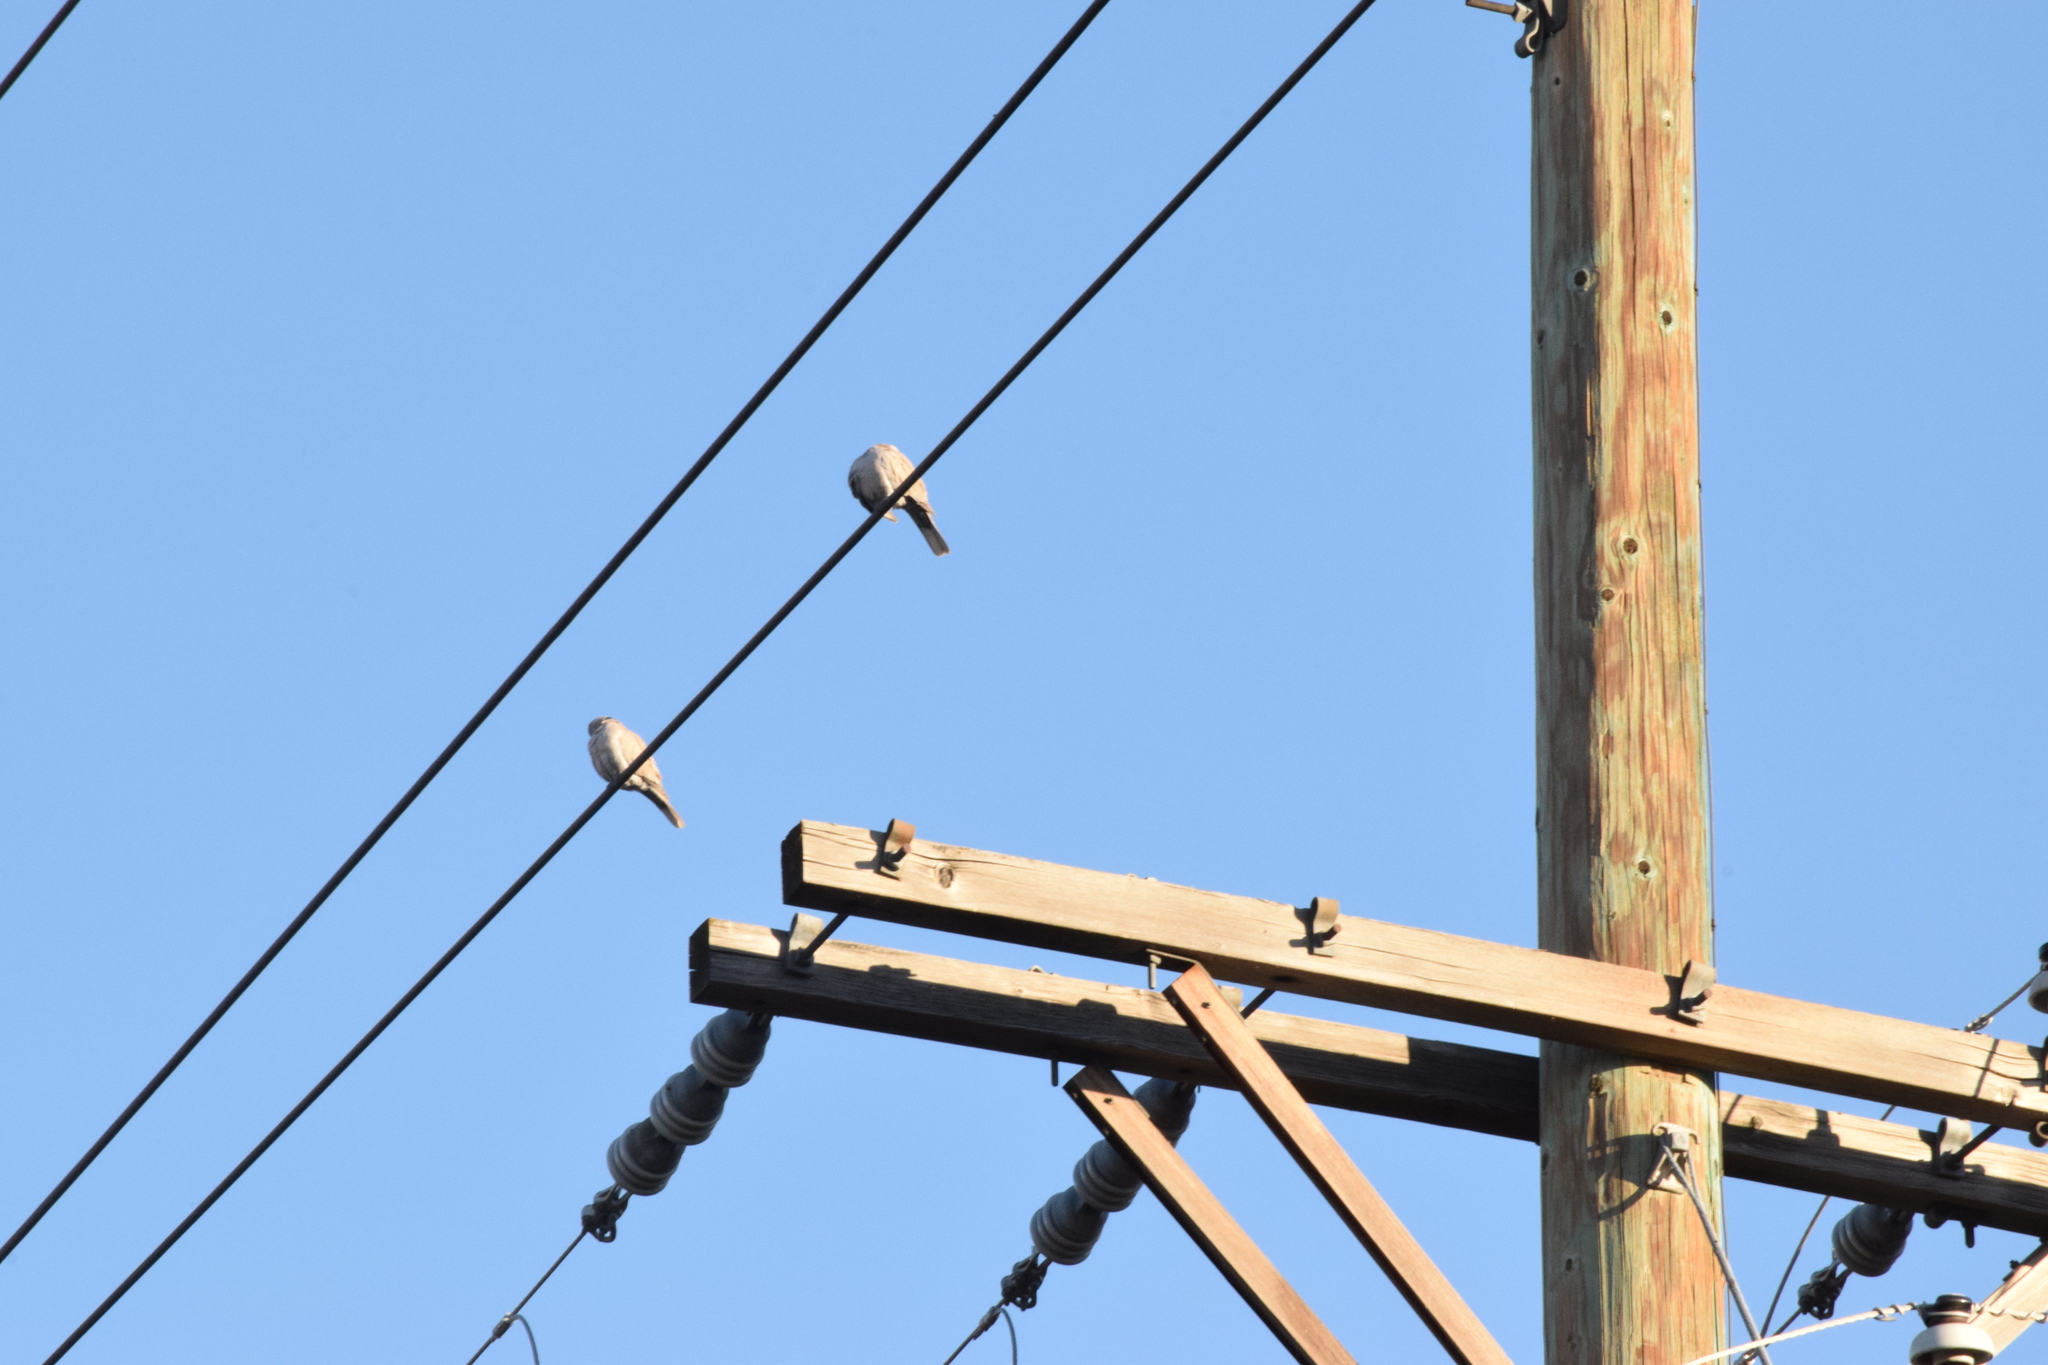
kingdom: Animalia
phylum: Chordata
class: Aves
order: Columbiformes
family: Columbidae
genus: Streptopelia
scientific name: Streptopelia decaocto
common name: Eurasian collared dove
